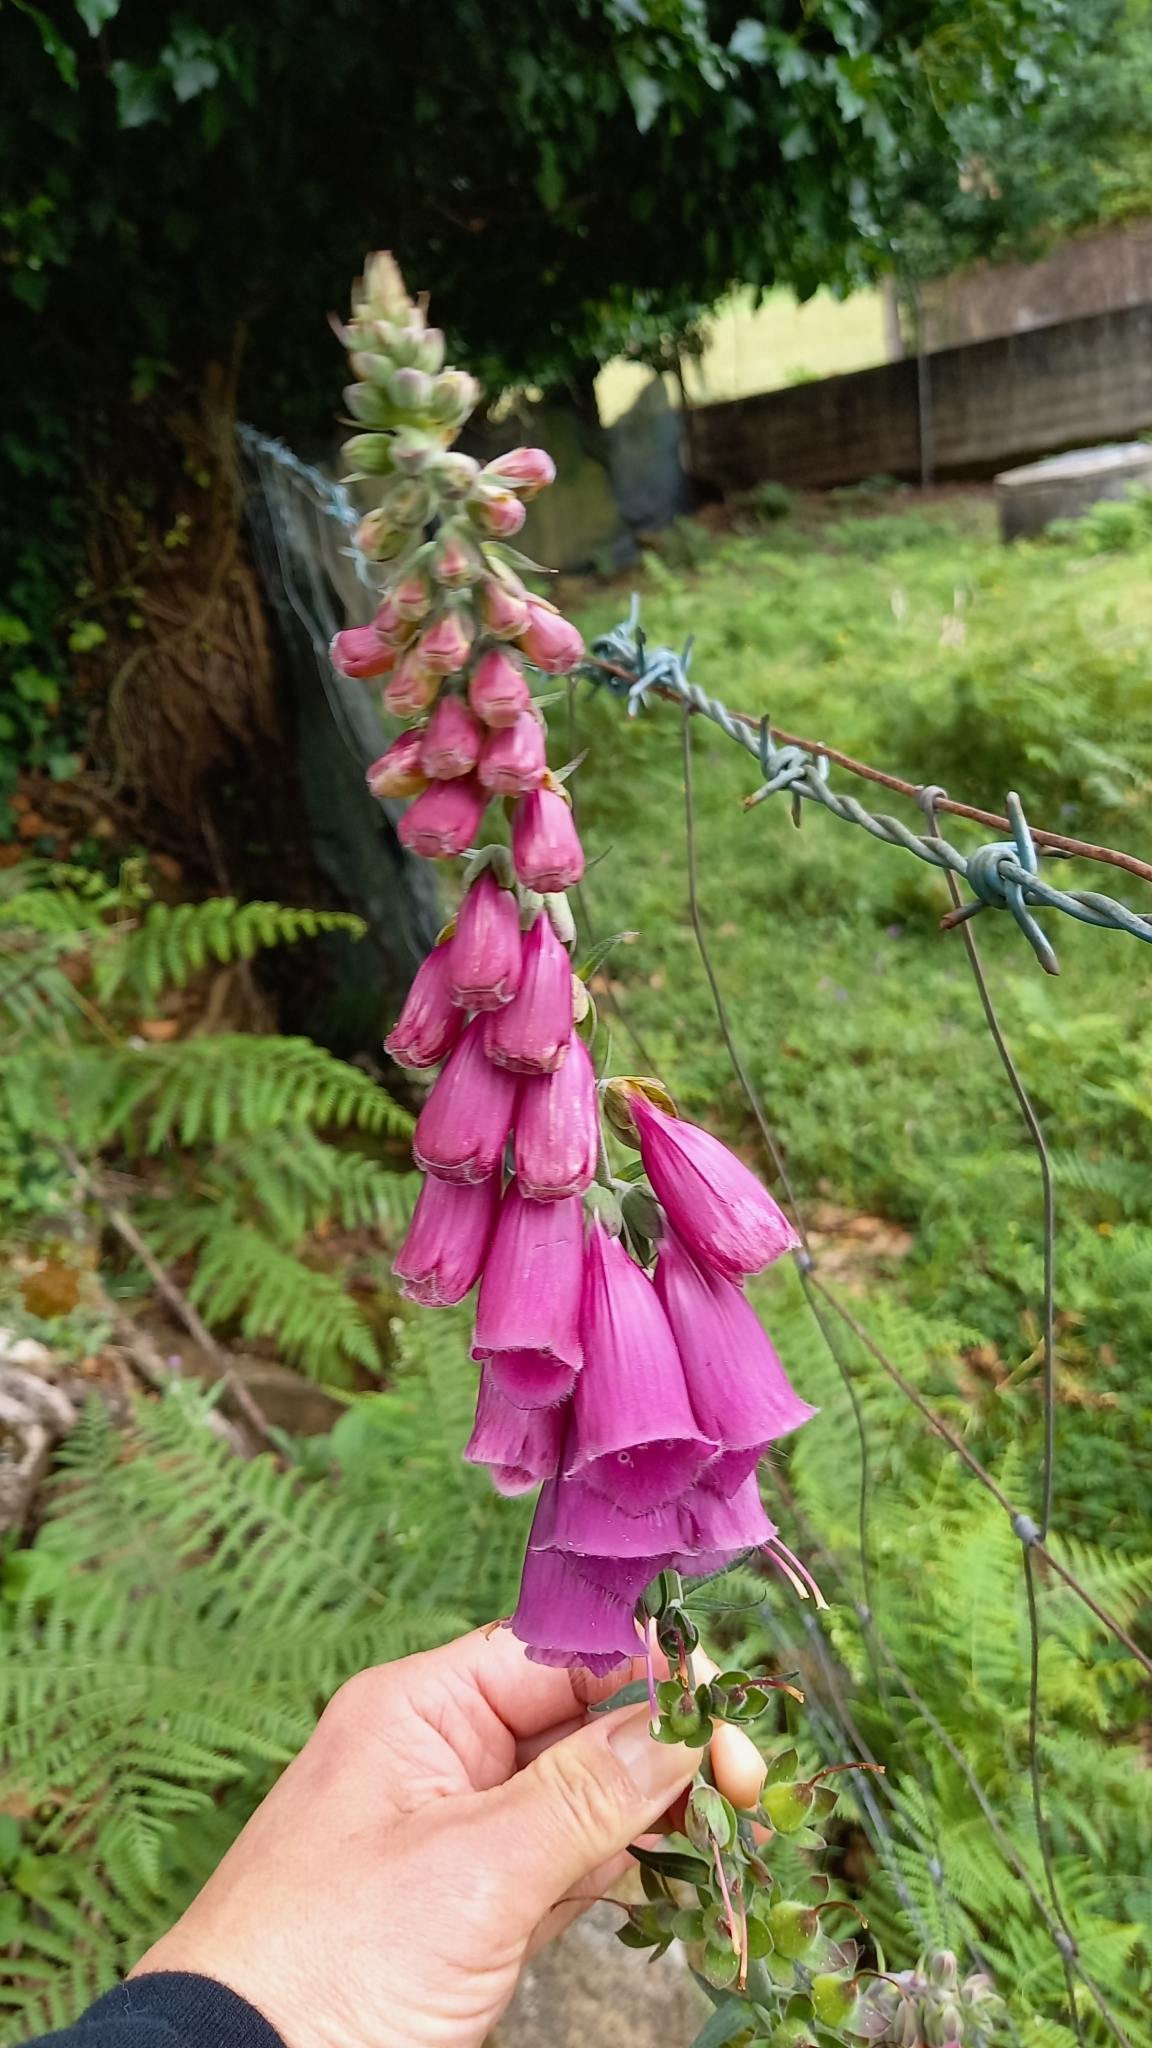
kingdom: Plantae
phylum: Tracheophyta
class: Magnoliopsida
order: Lamiales
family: Plantaginaceae
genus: Digitalis
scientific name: Digitalis purpurea
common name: Foxglove
